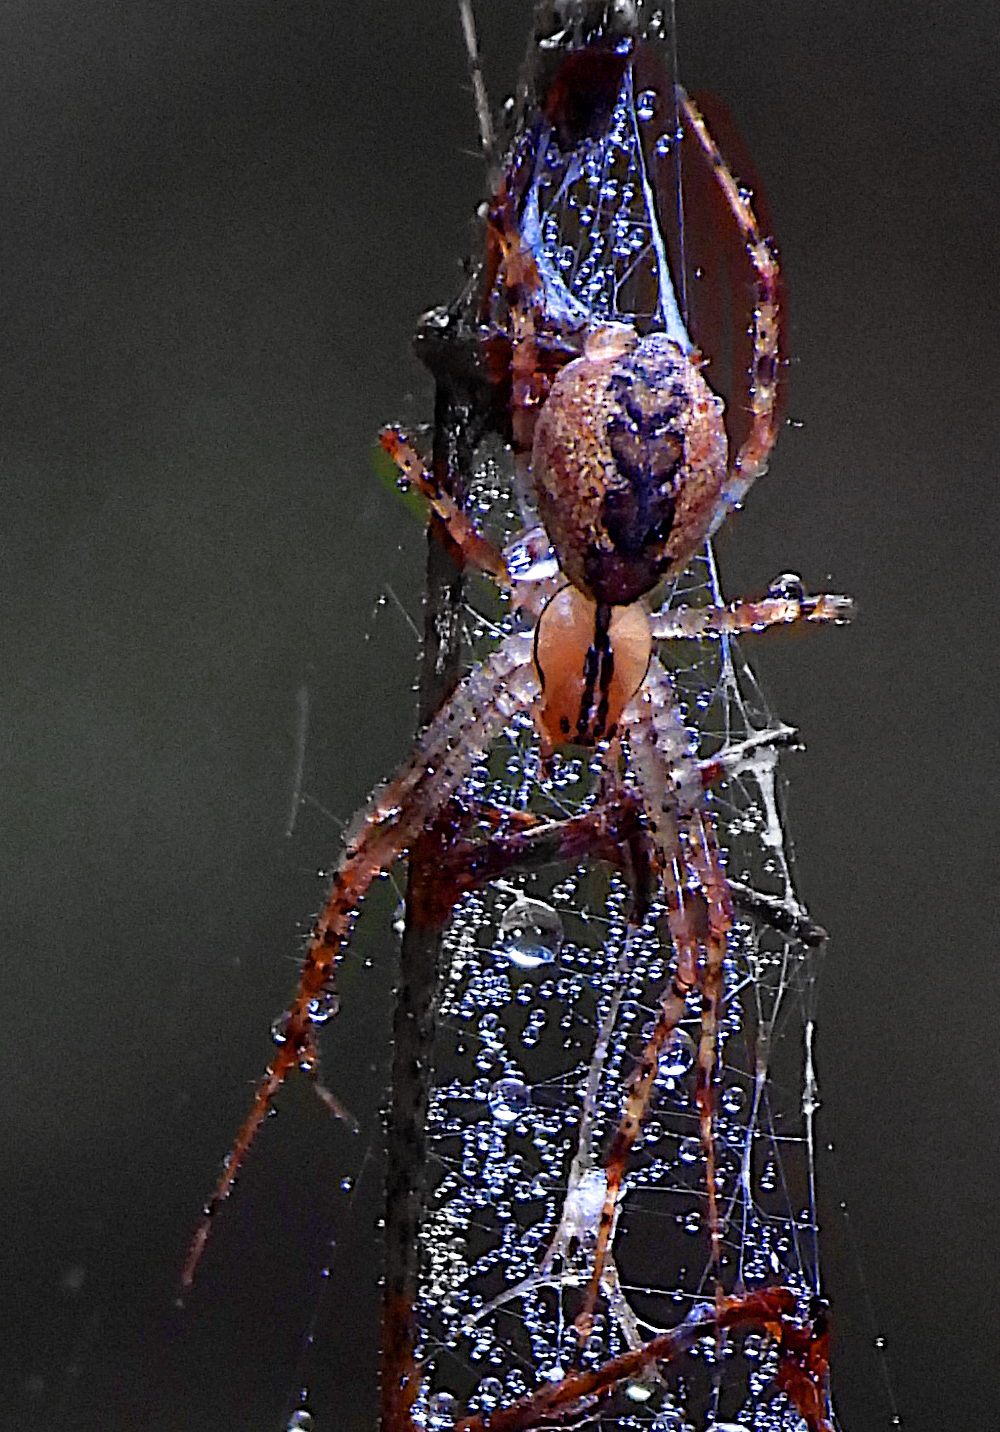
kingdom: Animalia
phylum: Arthropoda
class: Arachnida
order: Araneae
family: Linyphiidae
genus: Pityohyphantes
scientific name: Pityohyphantes costatus
